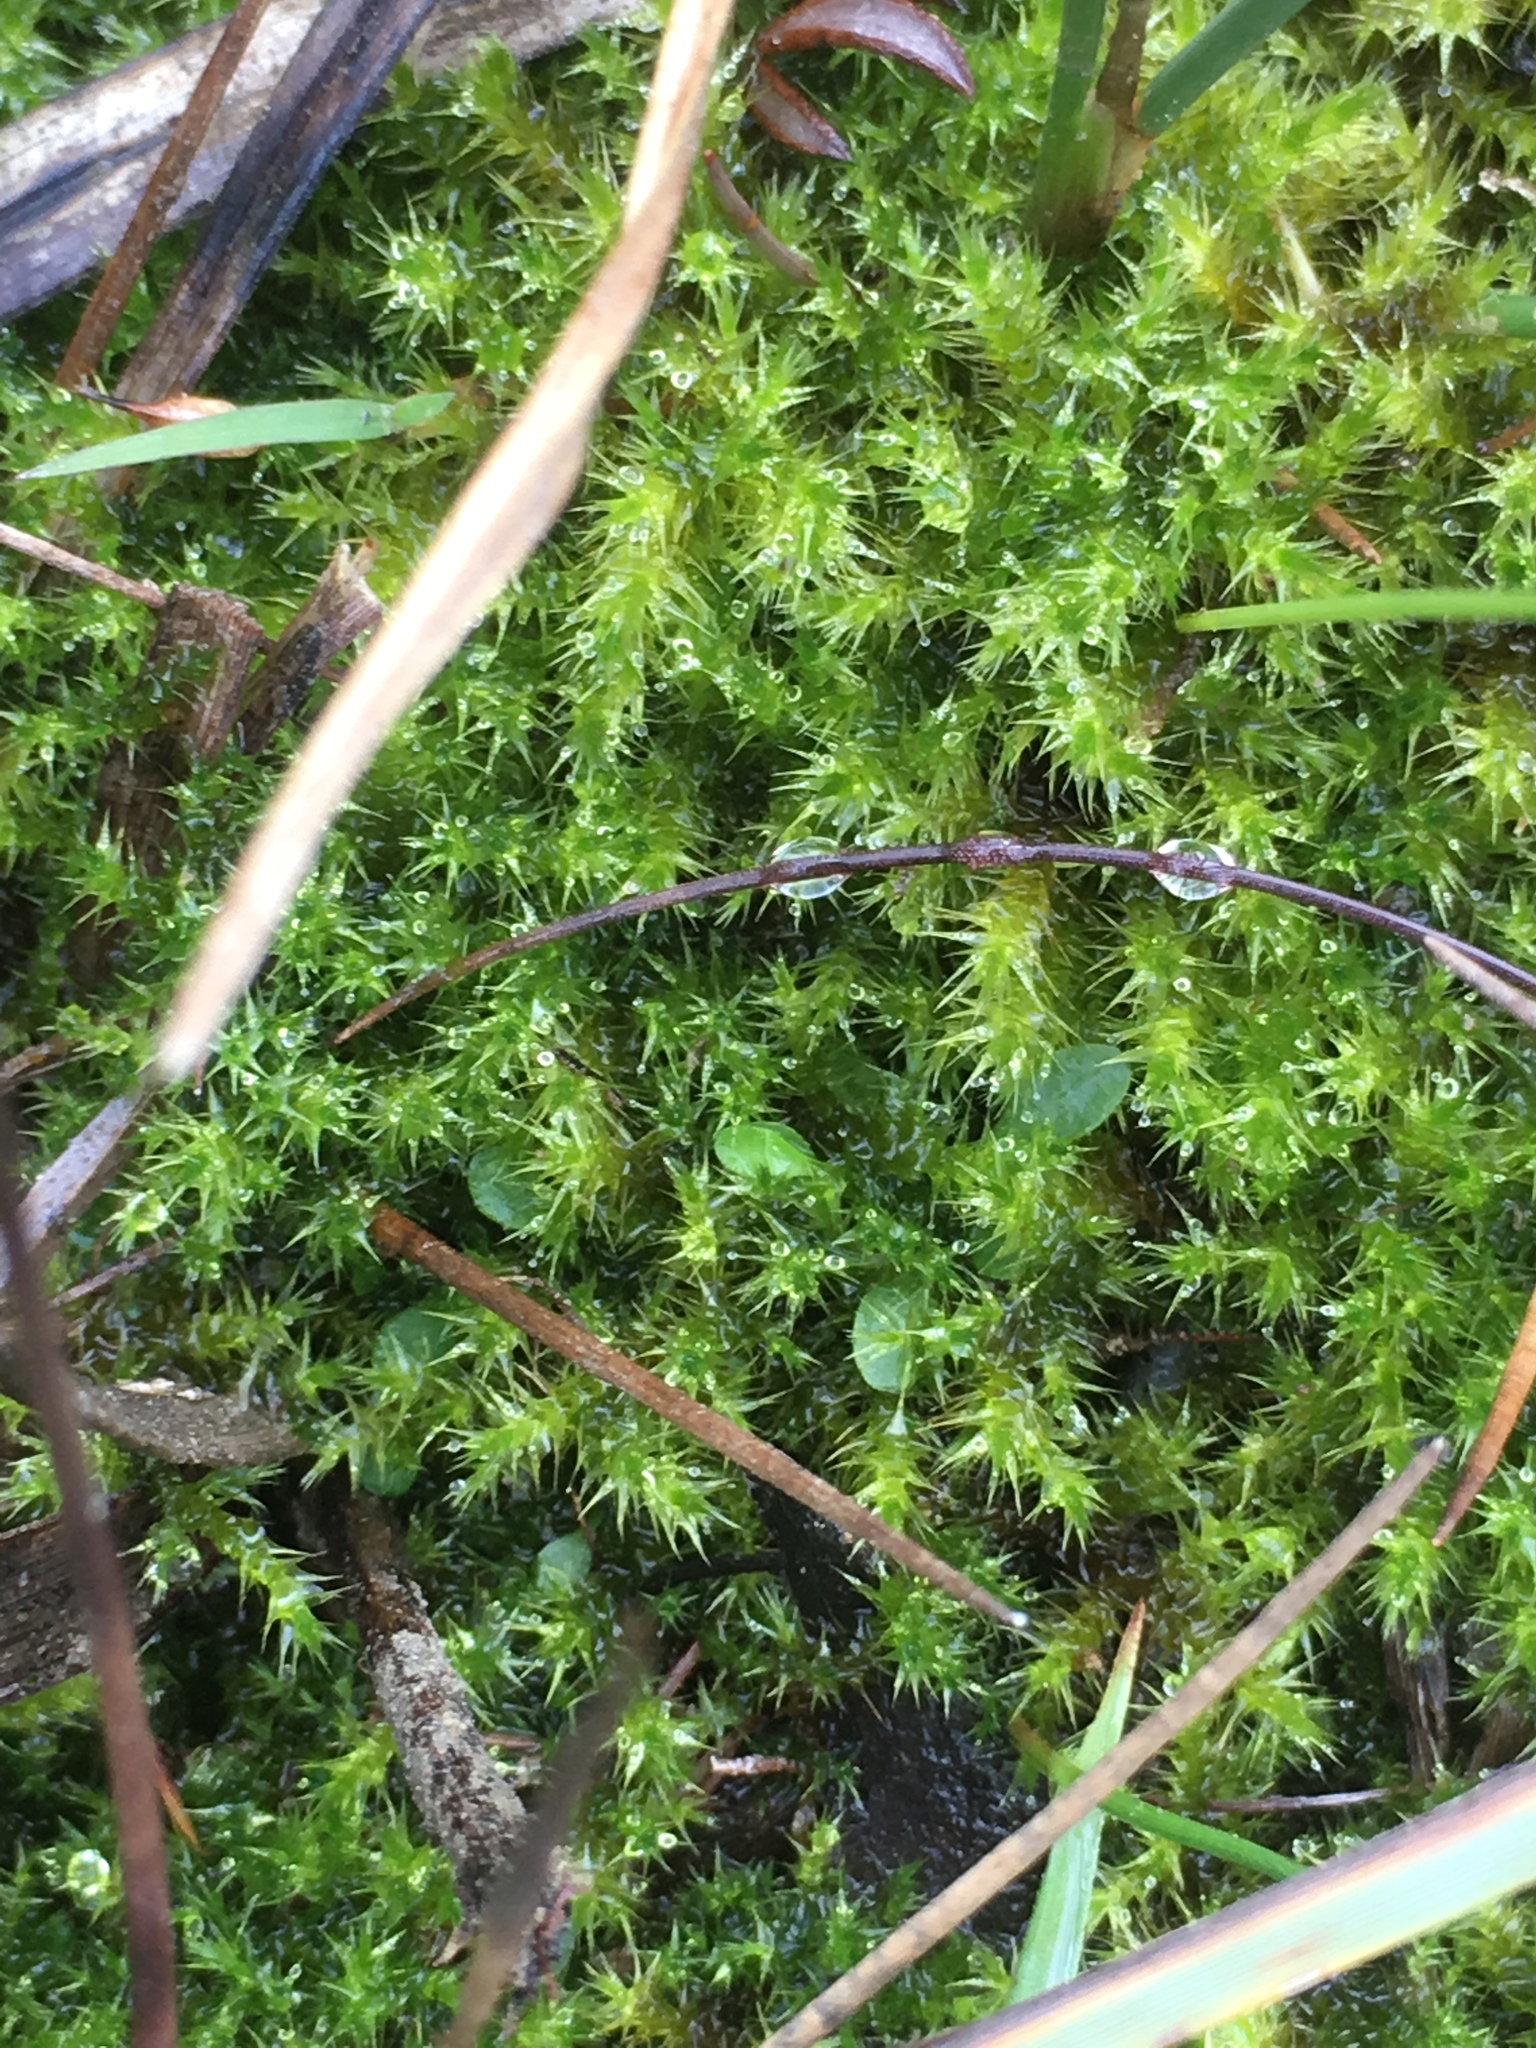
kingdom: Plantae
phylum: Bryophyta
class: Bryopsida
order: Hypnales
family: Amblystegiaceae
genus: Campylium
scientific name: Campylium stellatum
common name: Yellow starry fen moss
